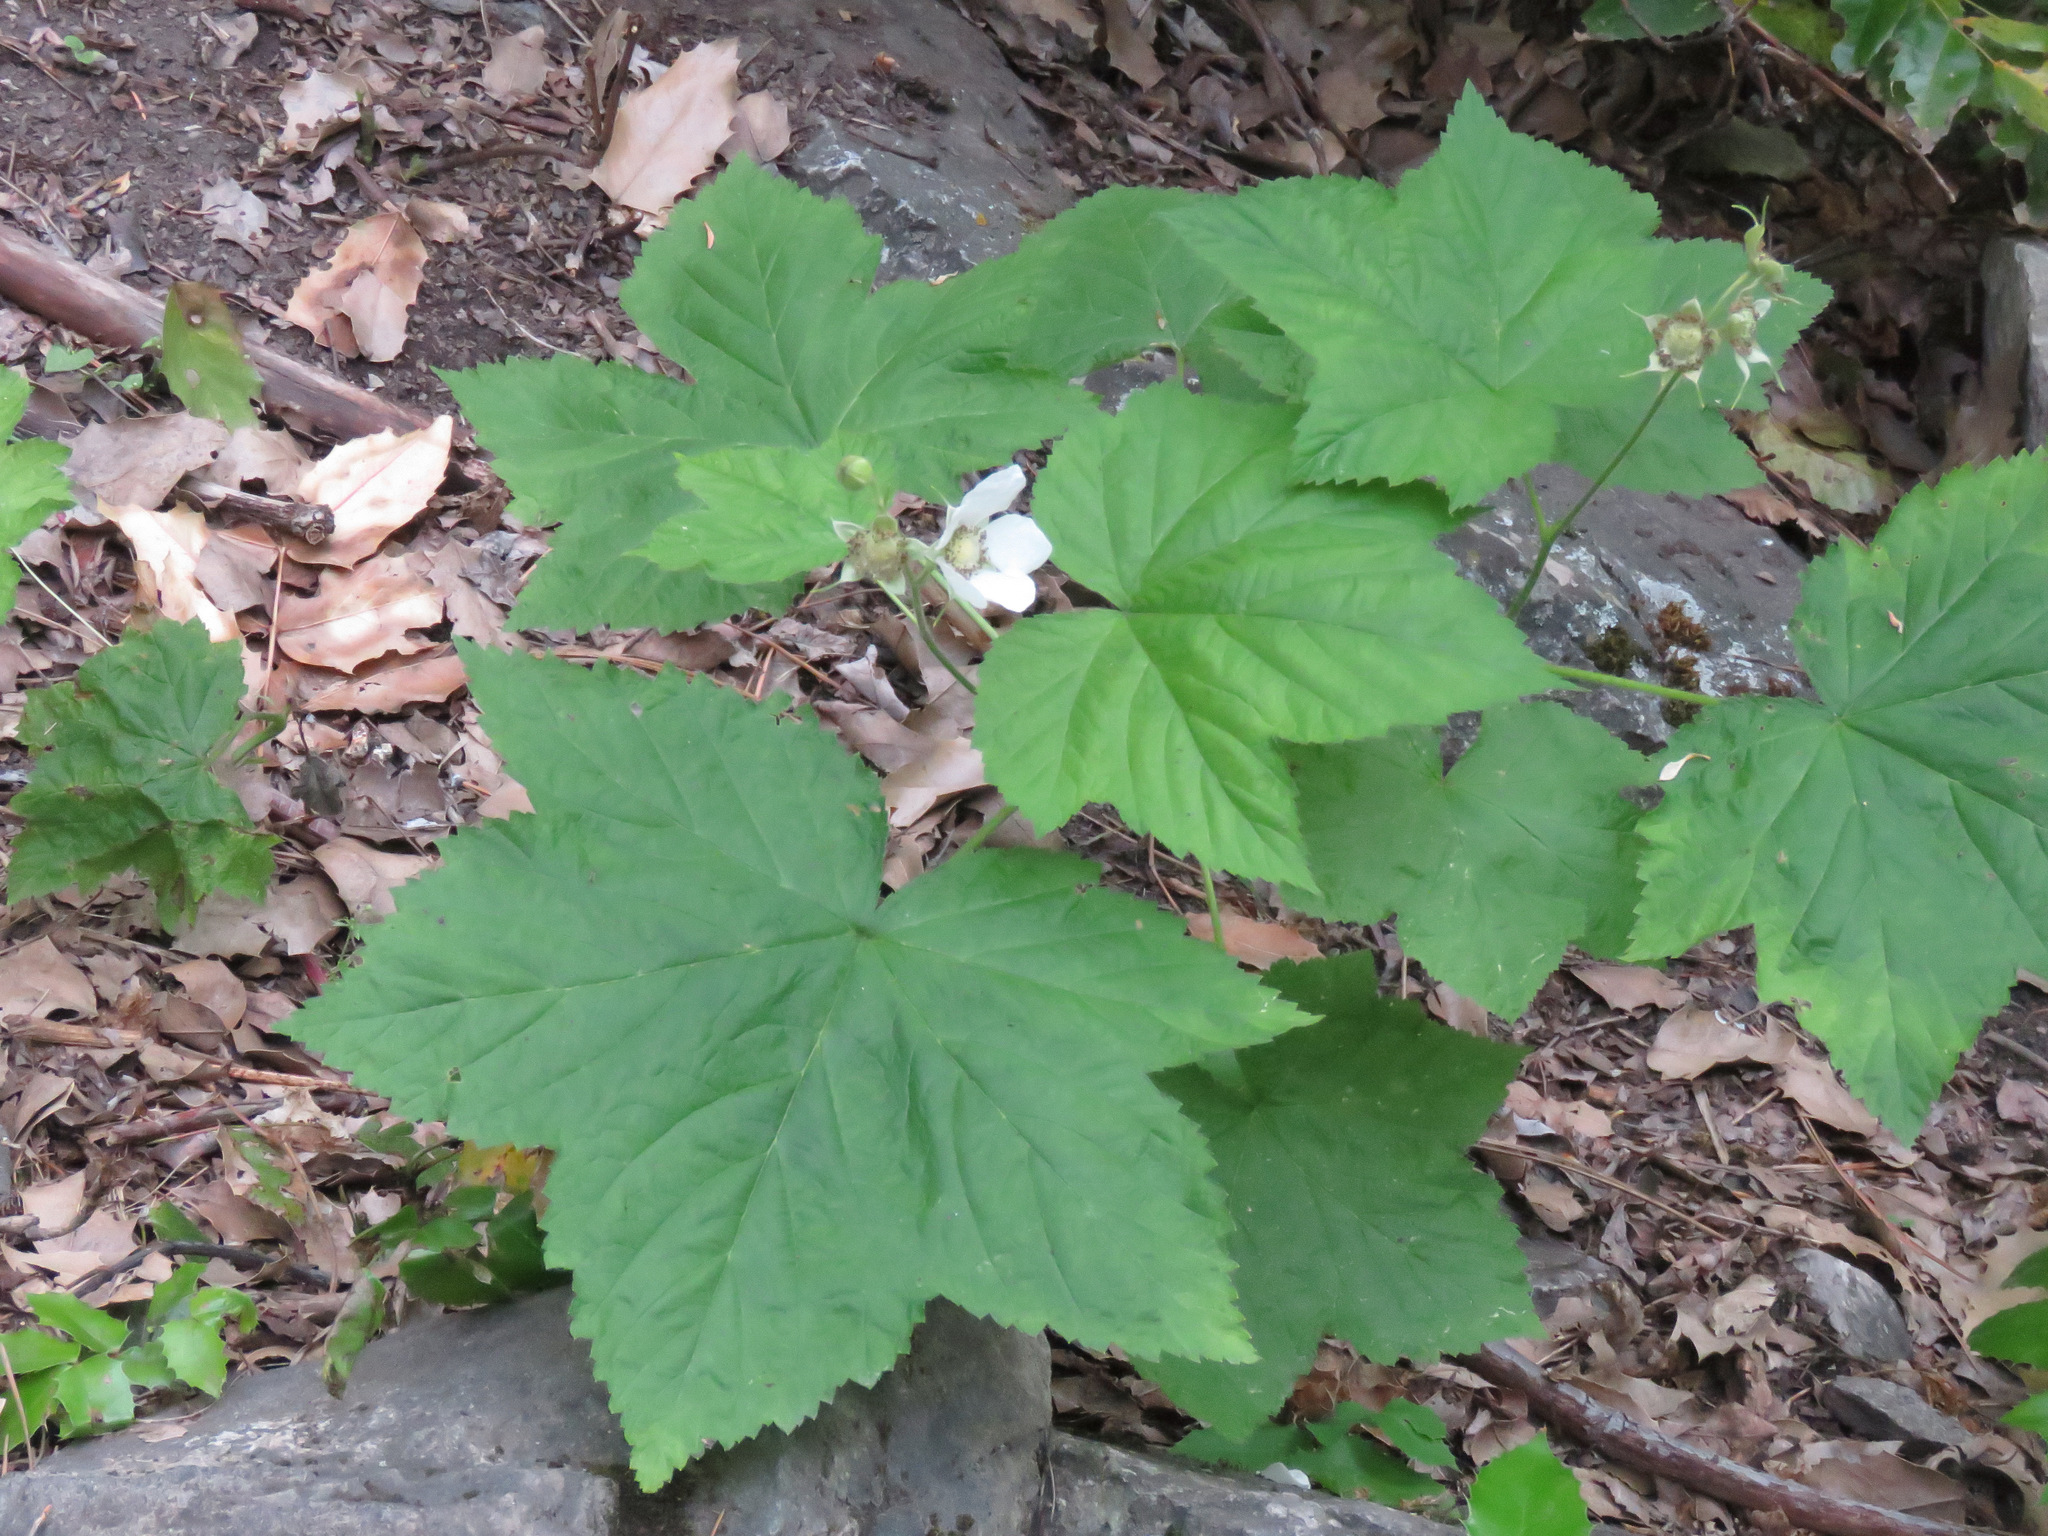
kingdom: Plantae
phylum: Tracheophyta
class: Magnoliopsida
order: Rosales
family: Rosaceae
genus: Rubus
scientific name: Rubus parviflorus
